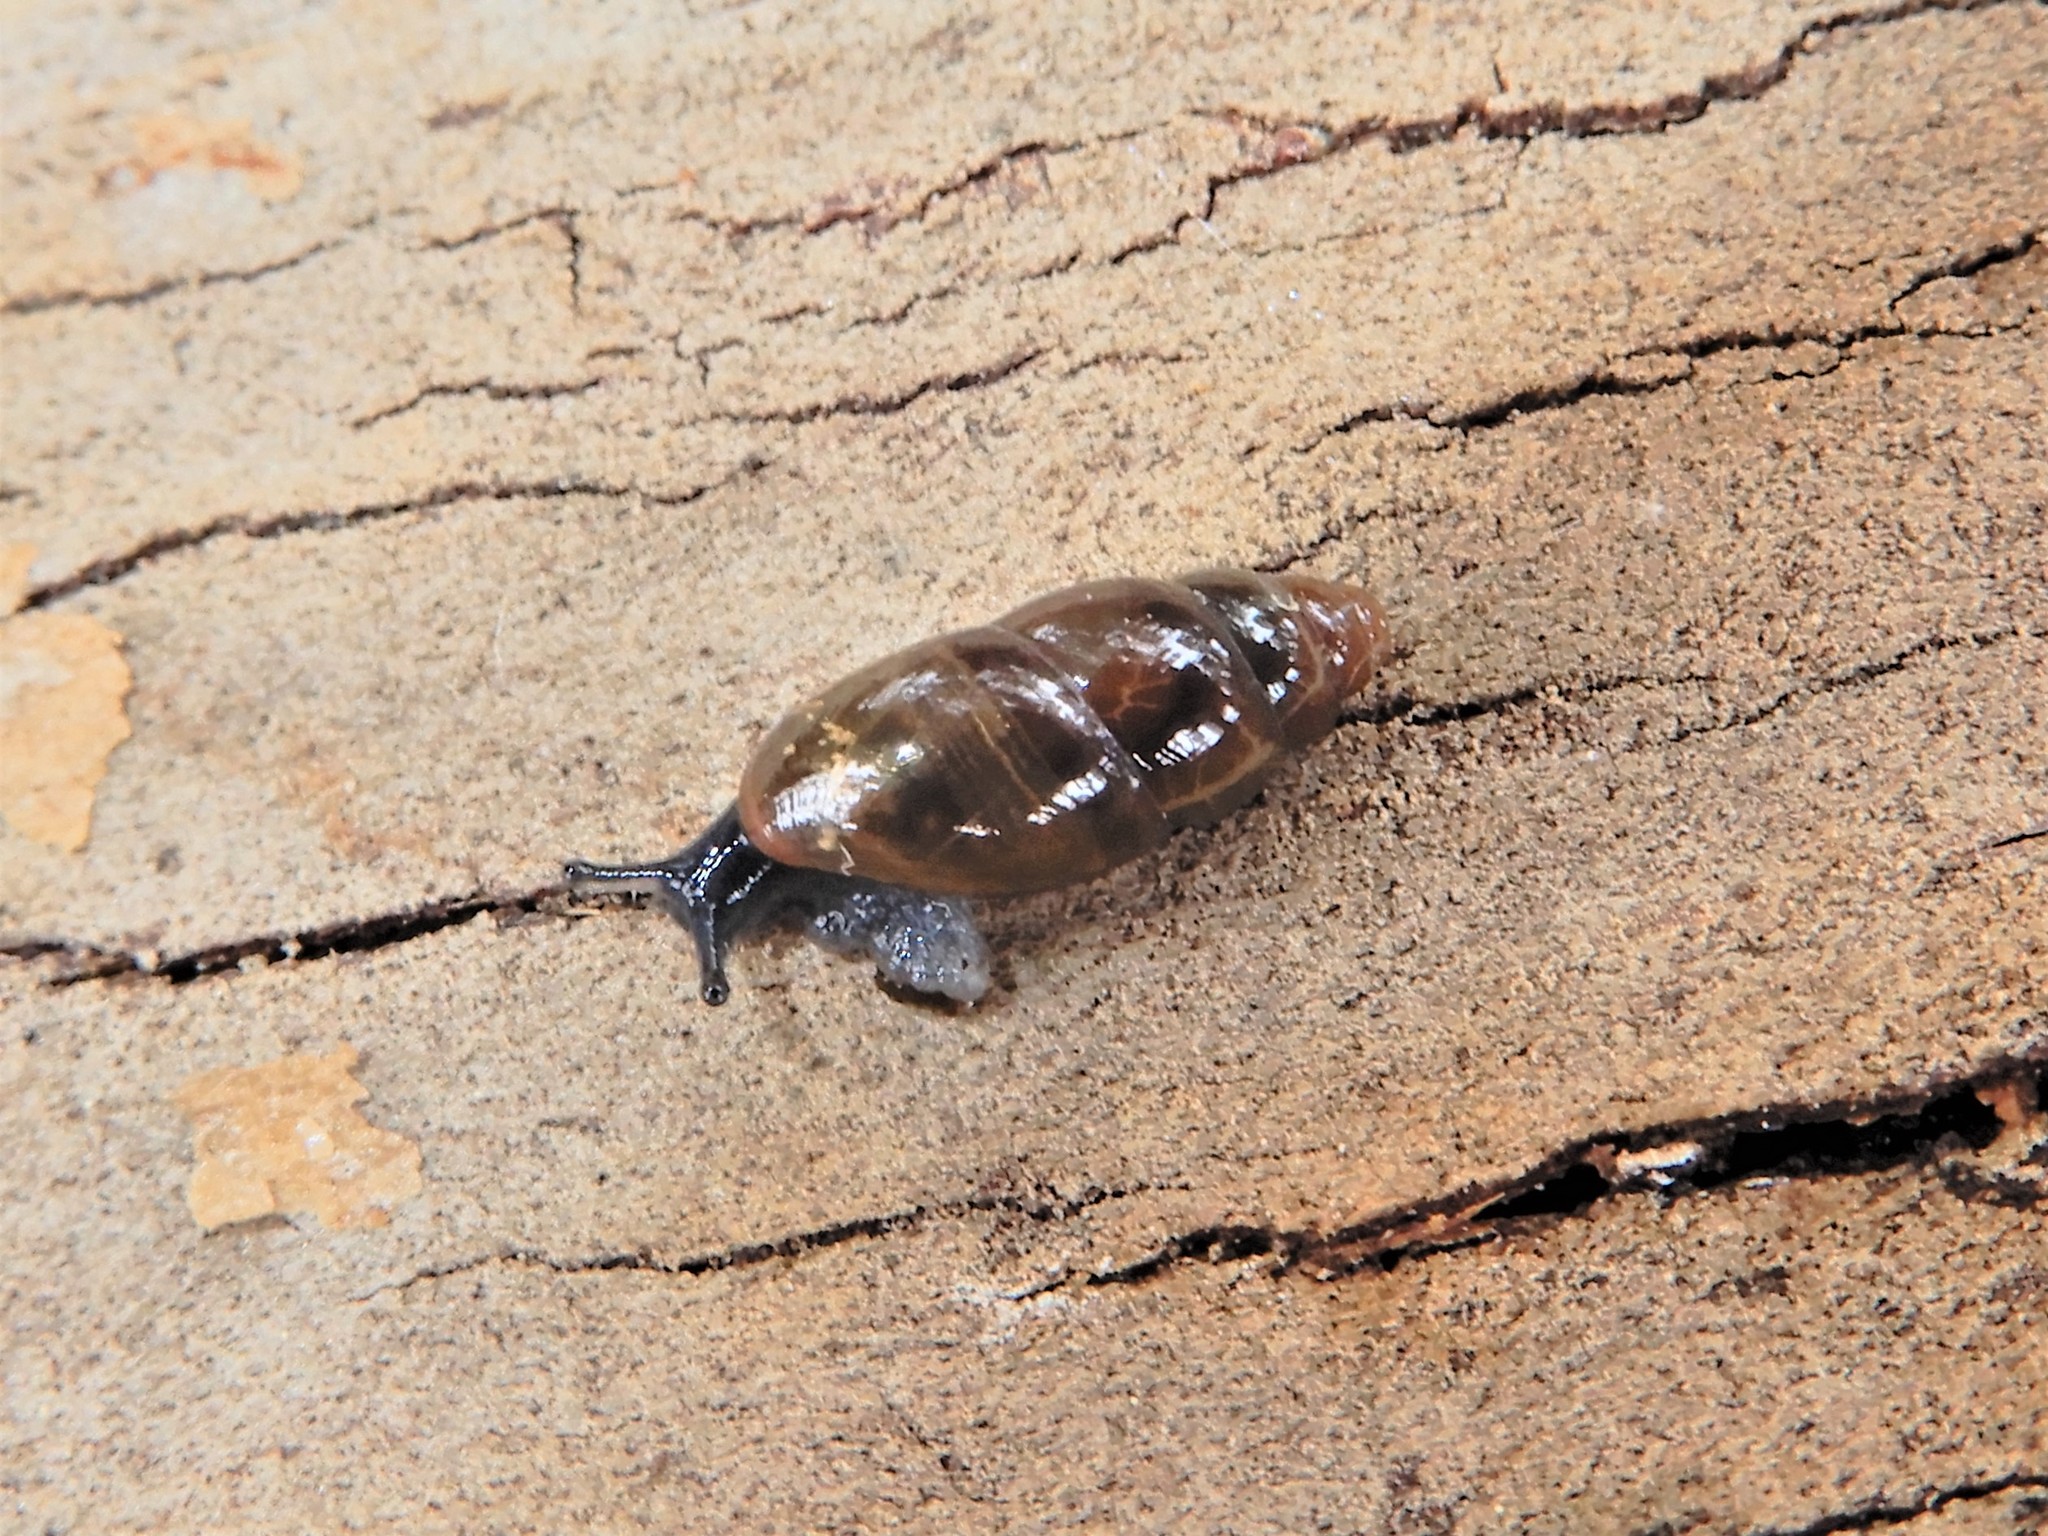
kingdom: Animalia
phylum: Mollusca
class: Gastropoda
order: Stylommatophora
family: Cochlicopidae
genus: Cochlicopa
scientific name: Cochlicopa lubrica
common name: Glossy pillar snail
